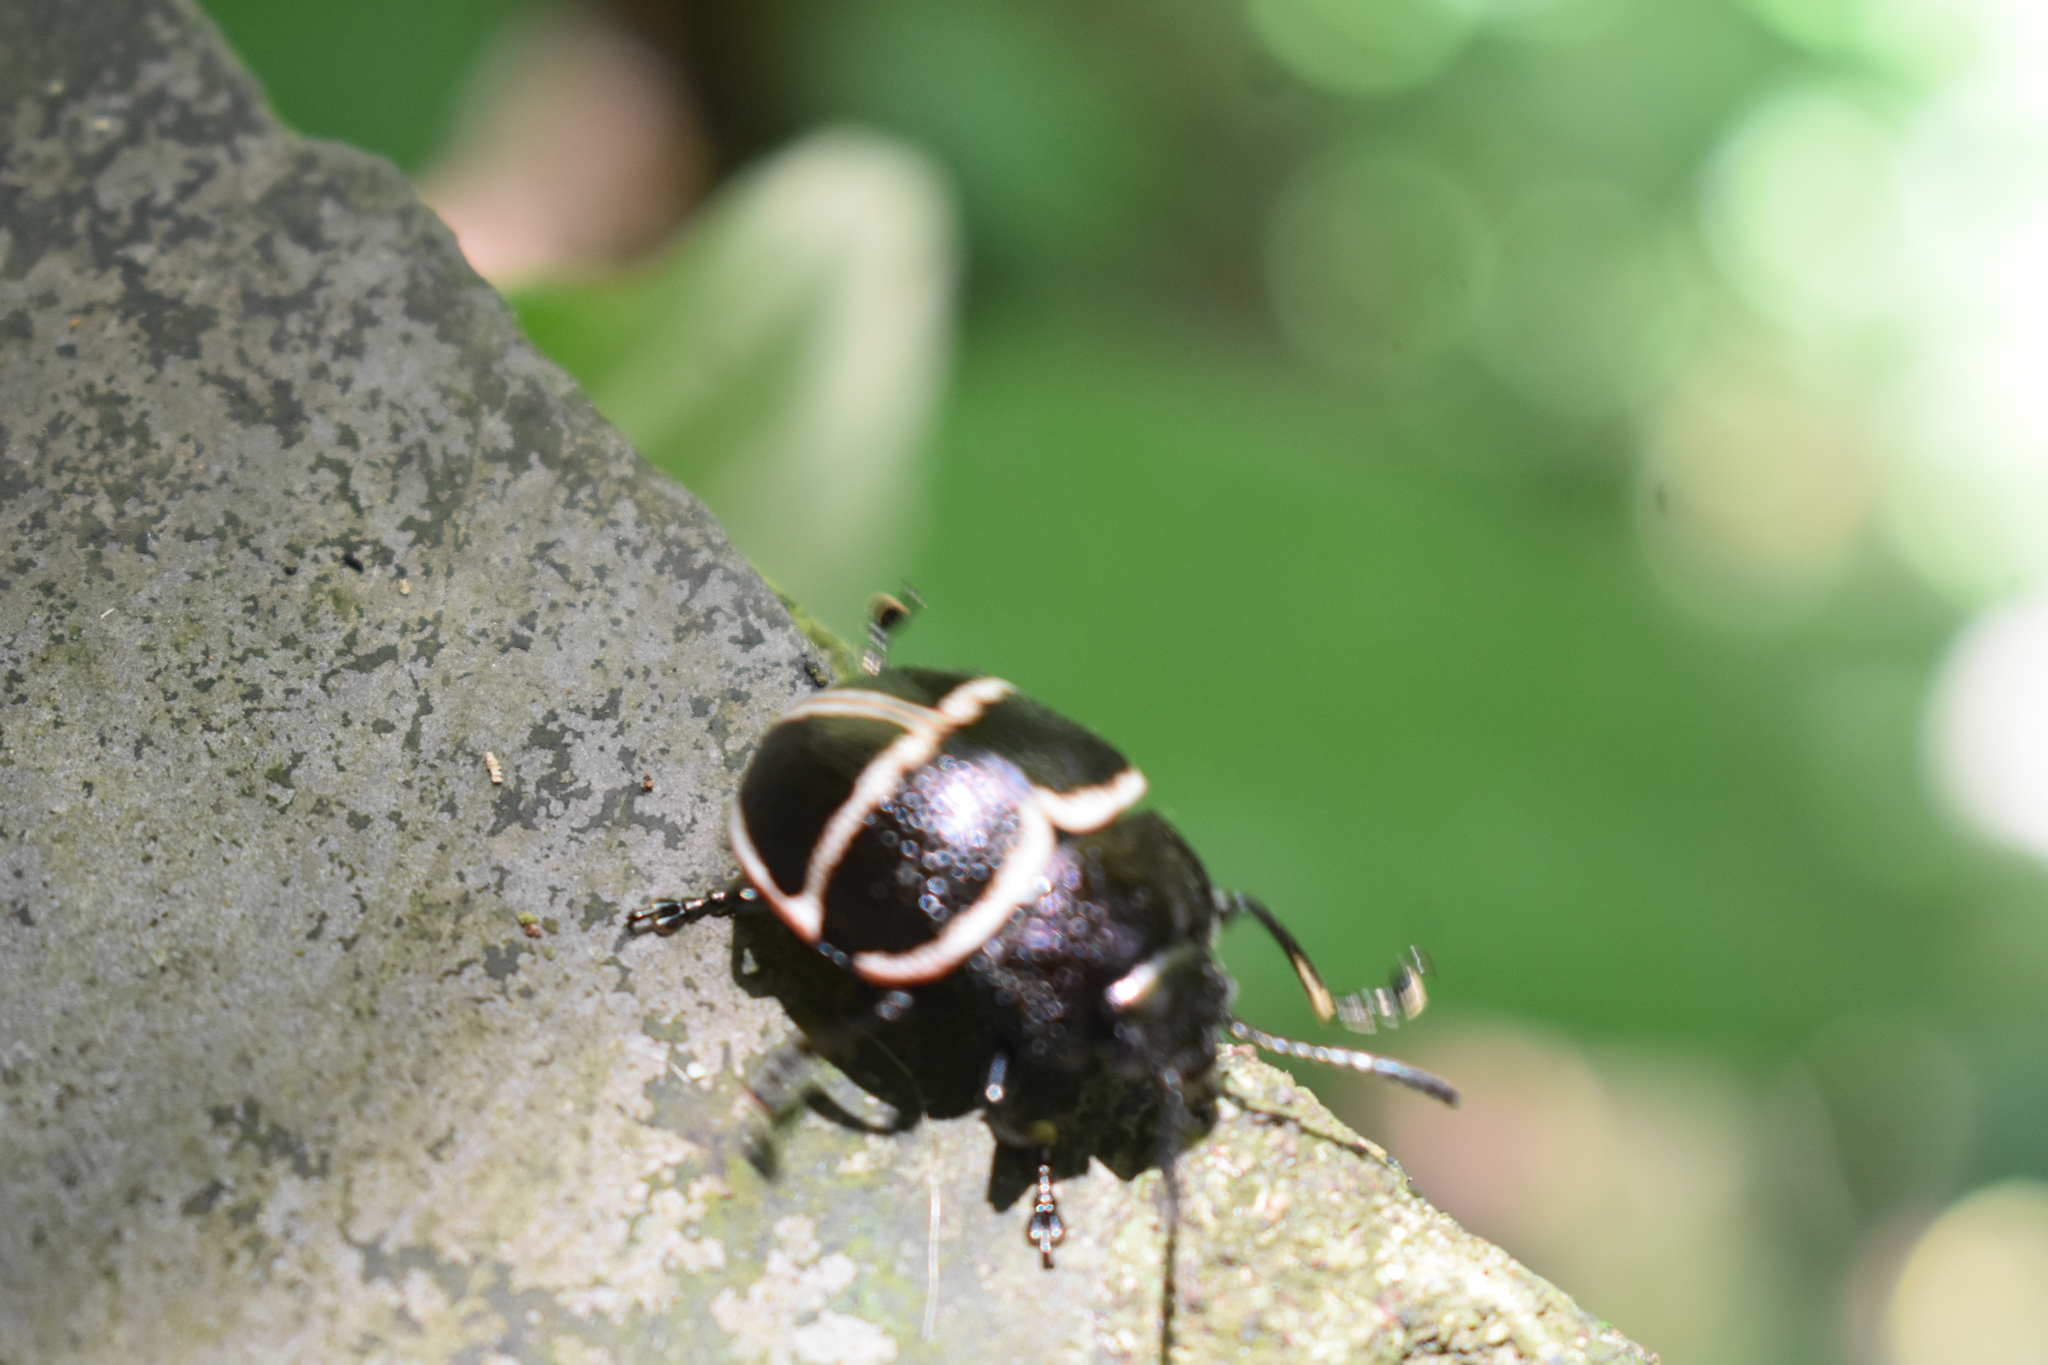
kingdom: Animalia
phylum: Arthropoda
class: Insecta
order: Coleoptera
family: Chrysomelidae
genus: Platyphora
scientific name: Platyphora
